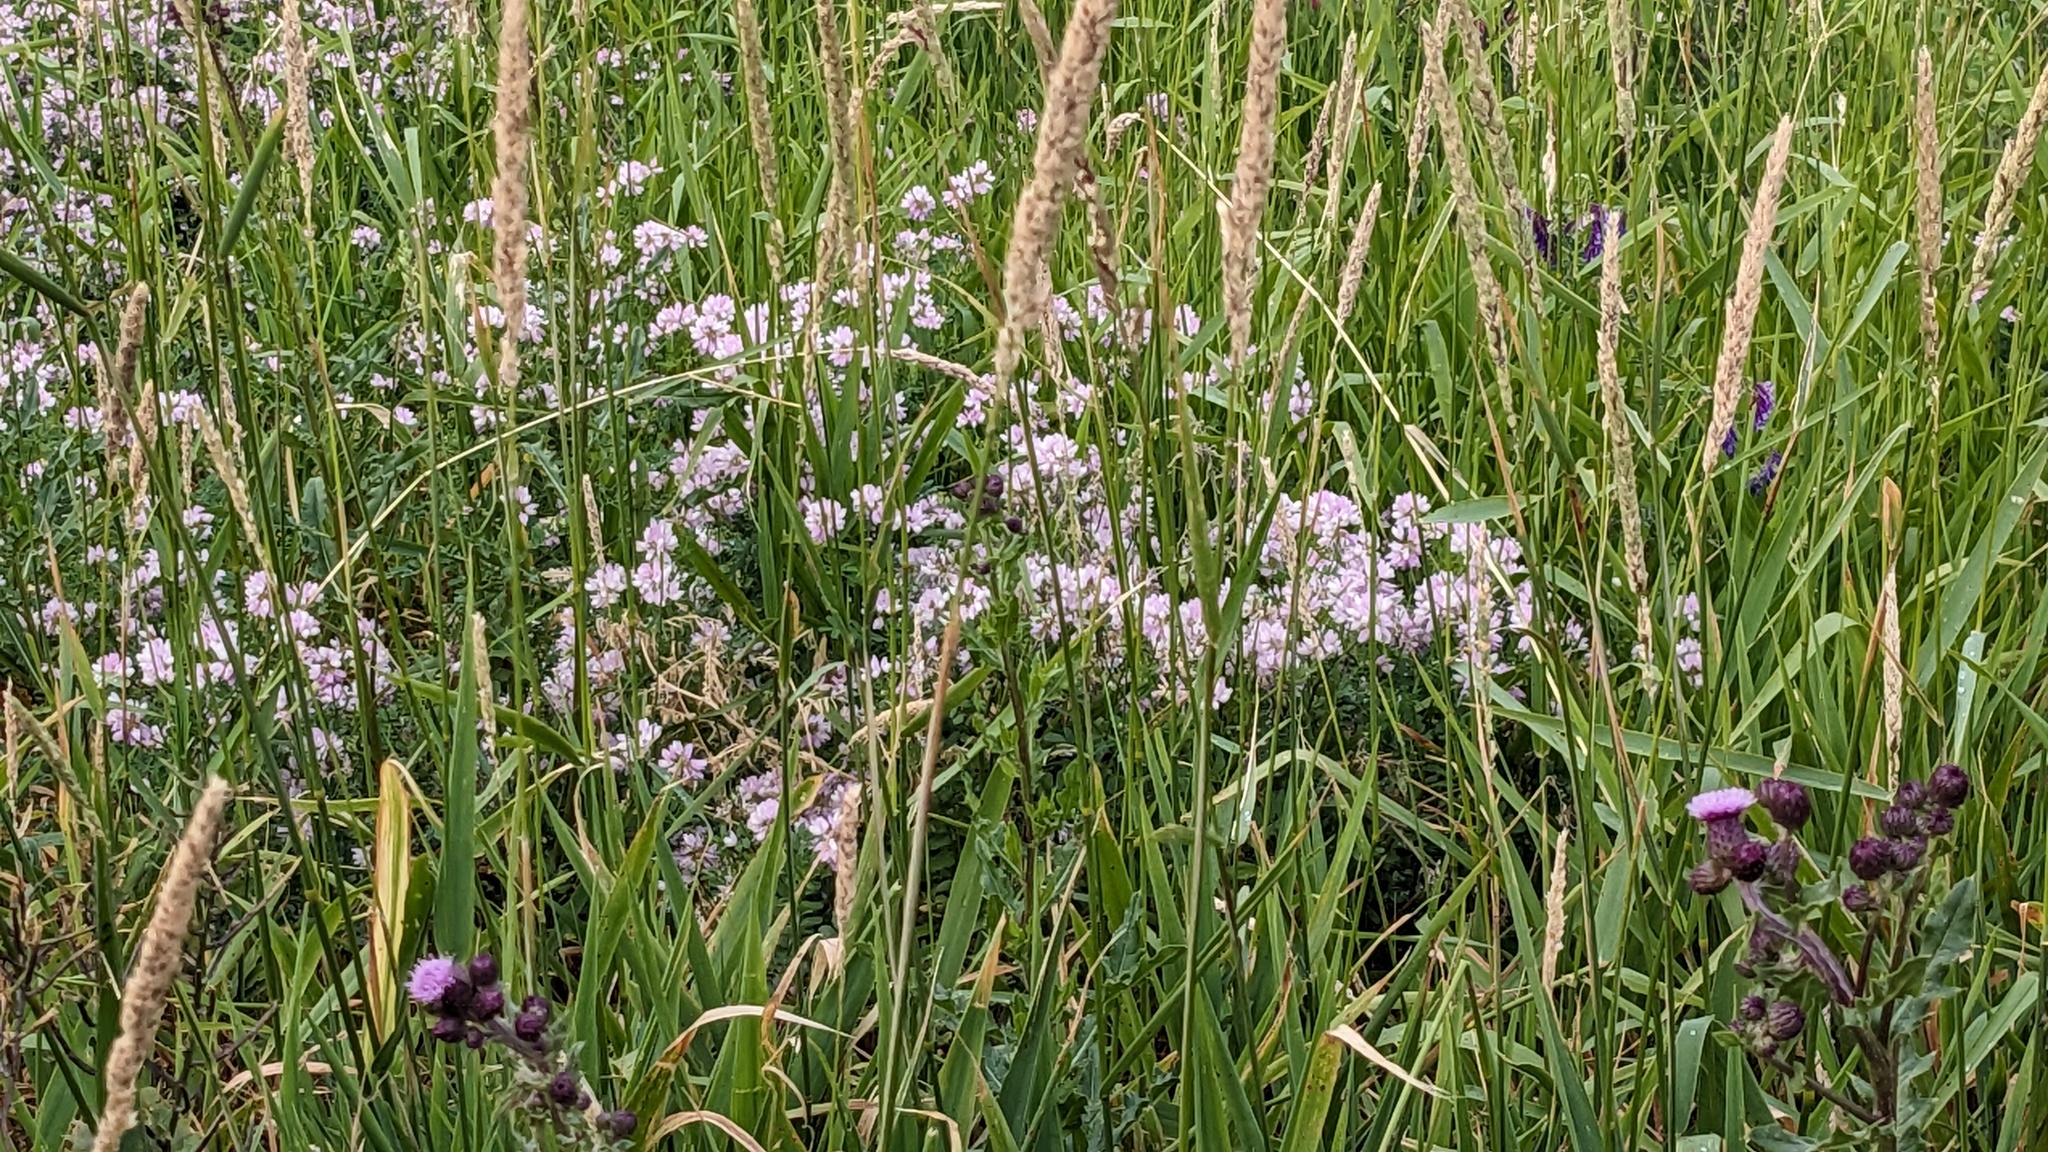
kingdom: Plantae
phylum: Tracheophyta
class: Magnoliopsida
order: Fabales
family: Fabaceae
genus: Coronilla
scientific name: Coronilla varia
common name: Crownvetch
